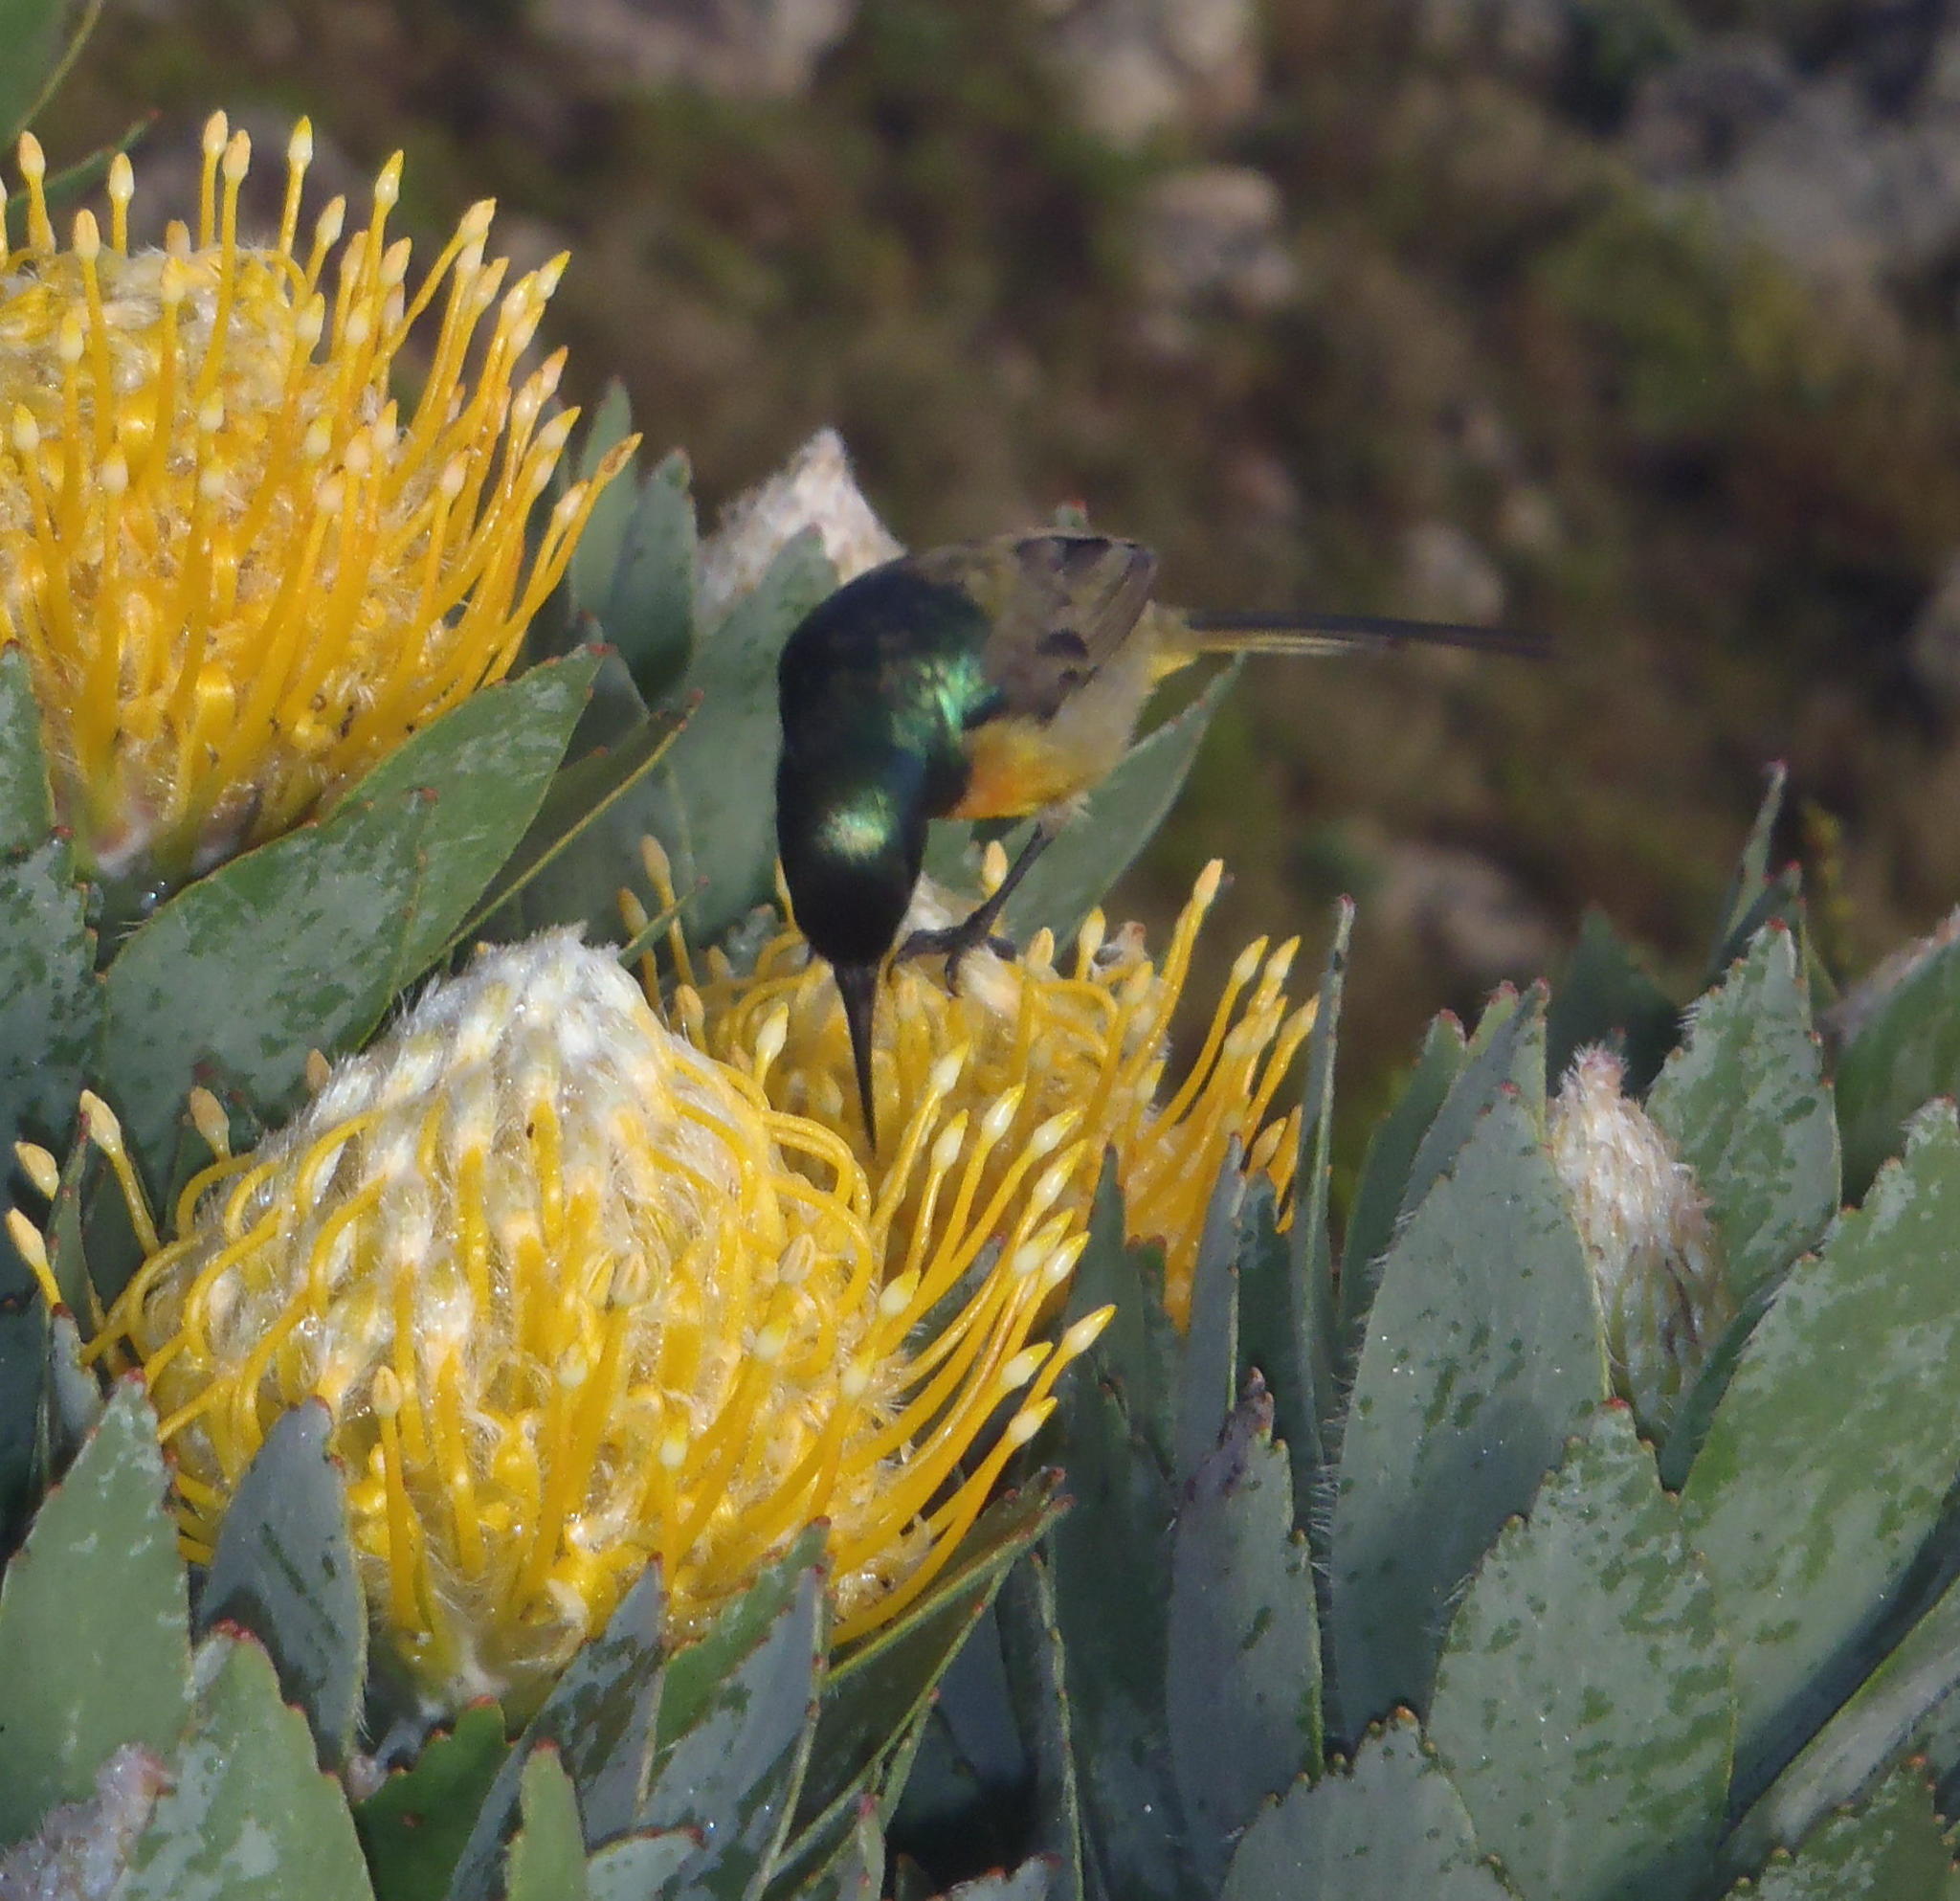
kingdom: Animalia
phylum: Chordata
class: Aves
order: Passeriformes
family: Nectariniidae
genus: Anthobaphes
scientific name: Anthobaphes violacea
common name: Orange-breasted sunbird
